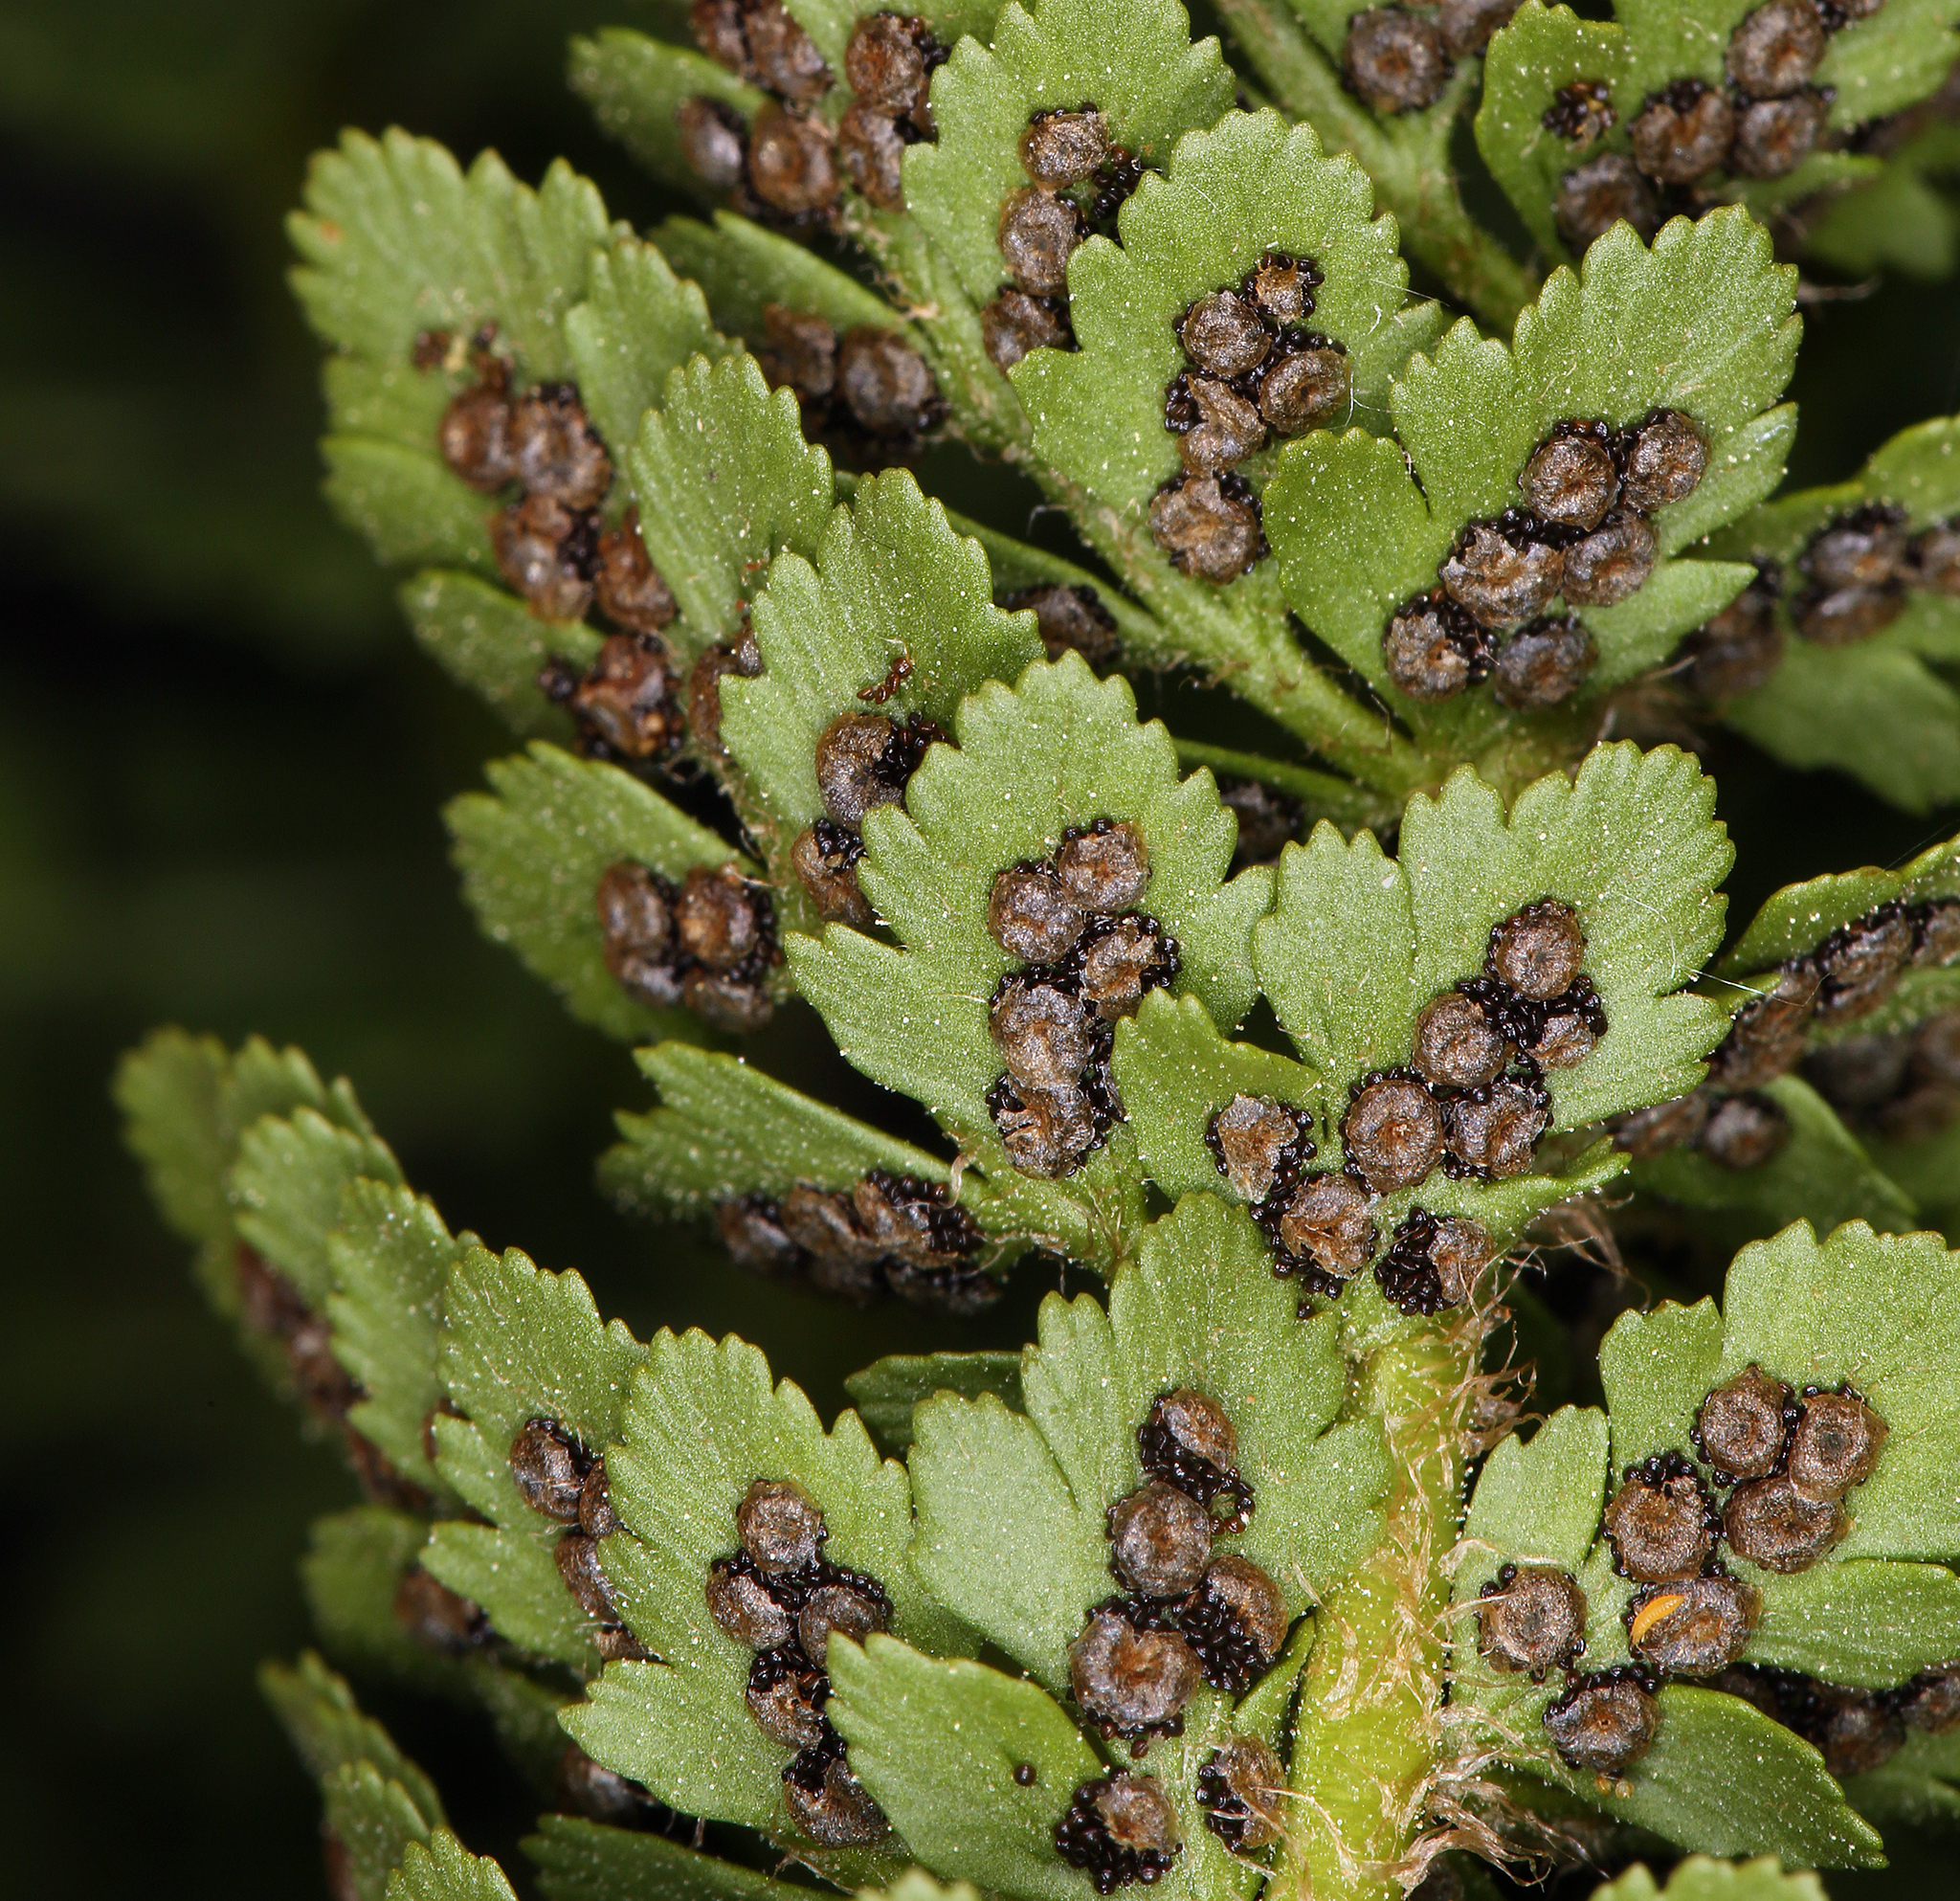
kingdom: Plantae
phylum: Tracheophyta
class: Polypodiopsida
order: Polypodiales
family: Dryopteridaceae
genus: Polystichum
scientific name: Polystichum lemmonii
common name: Lemmon's holly fern
